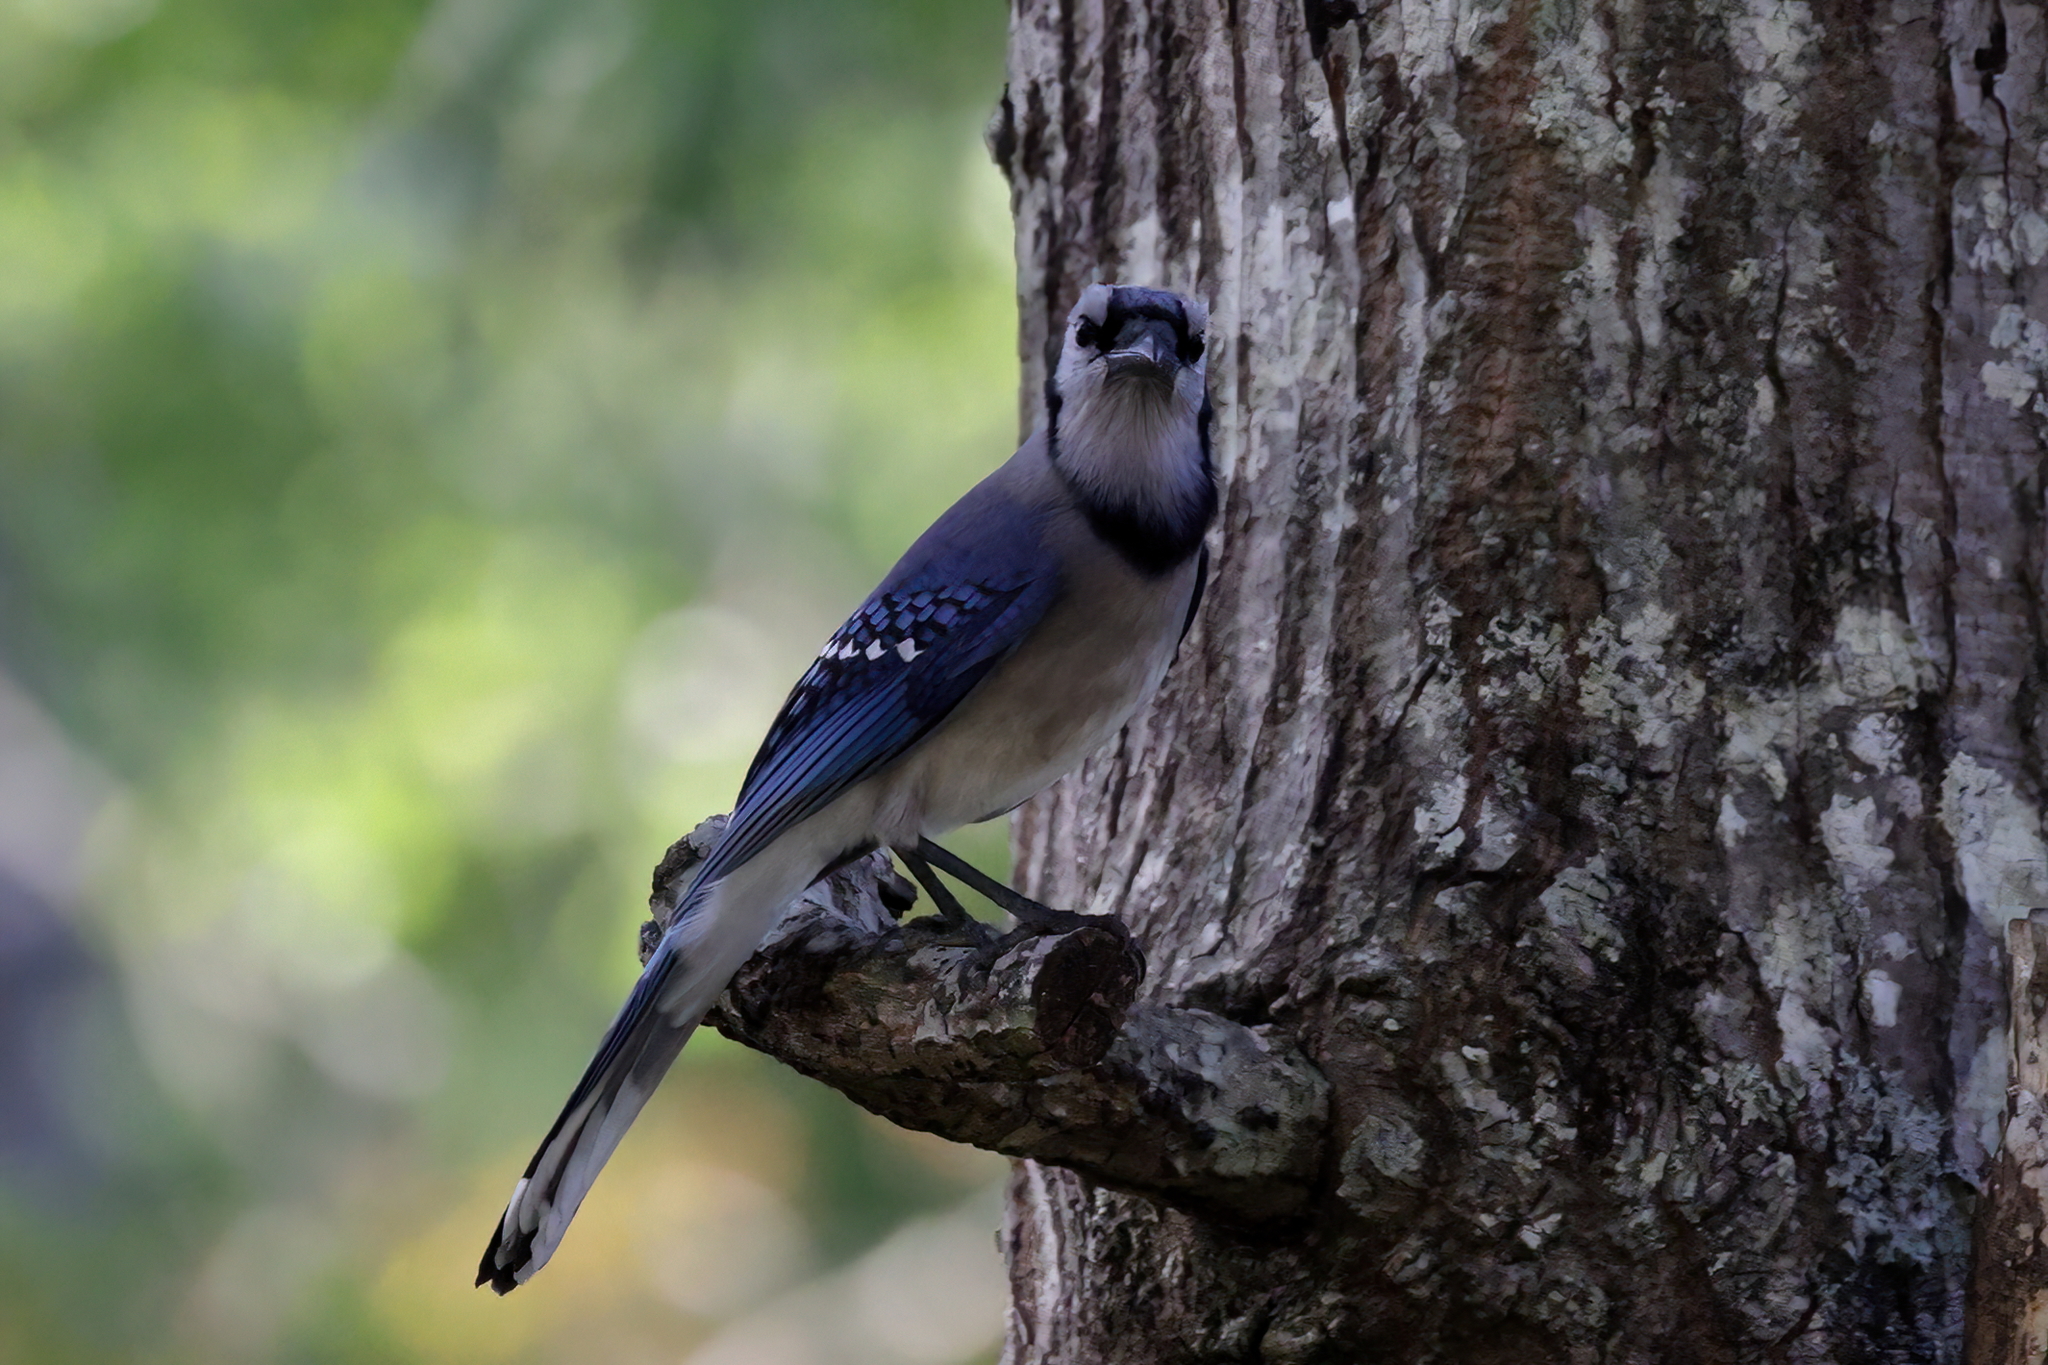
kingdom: Animalia
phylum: Chordata
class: Aves
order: Passeriformes
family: Corvidae
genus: Cyanocitta
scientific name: Cyanocitta cristata
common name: Blue jay
